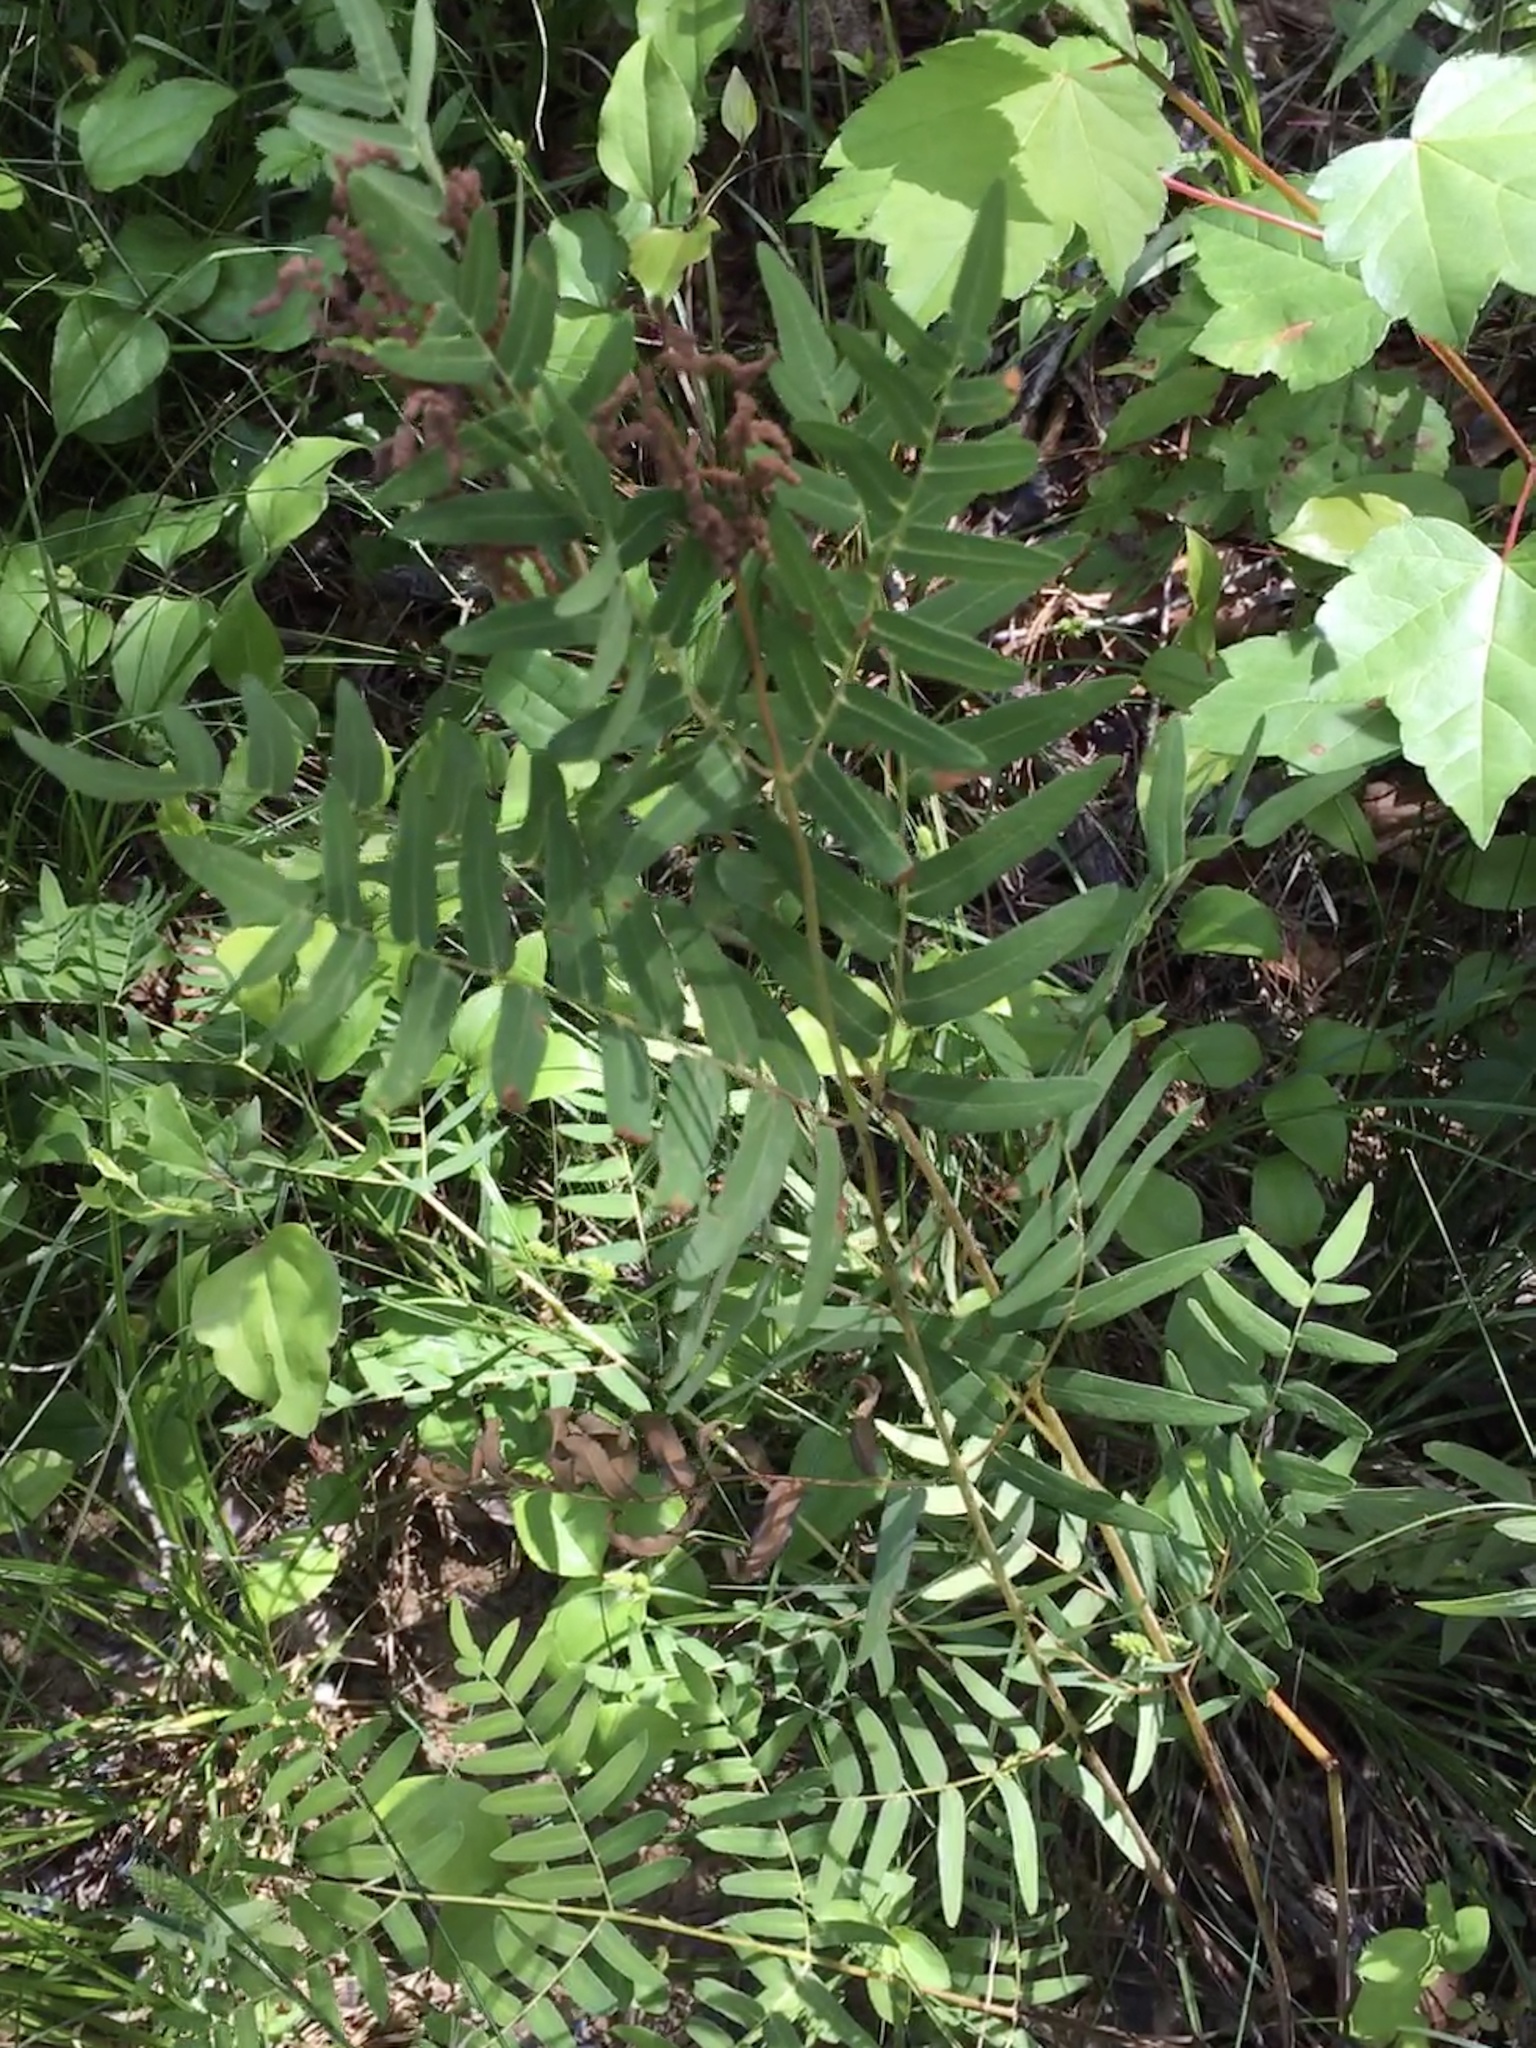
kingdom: Plantae
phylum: Tracheophyta
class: Polypodiopsida
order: Osmundales
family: Osmundaceae
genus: Osmunda
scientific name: Osmunda spectabilis
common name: American royal fern
